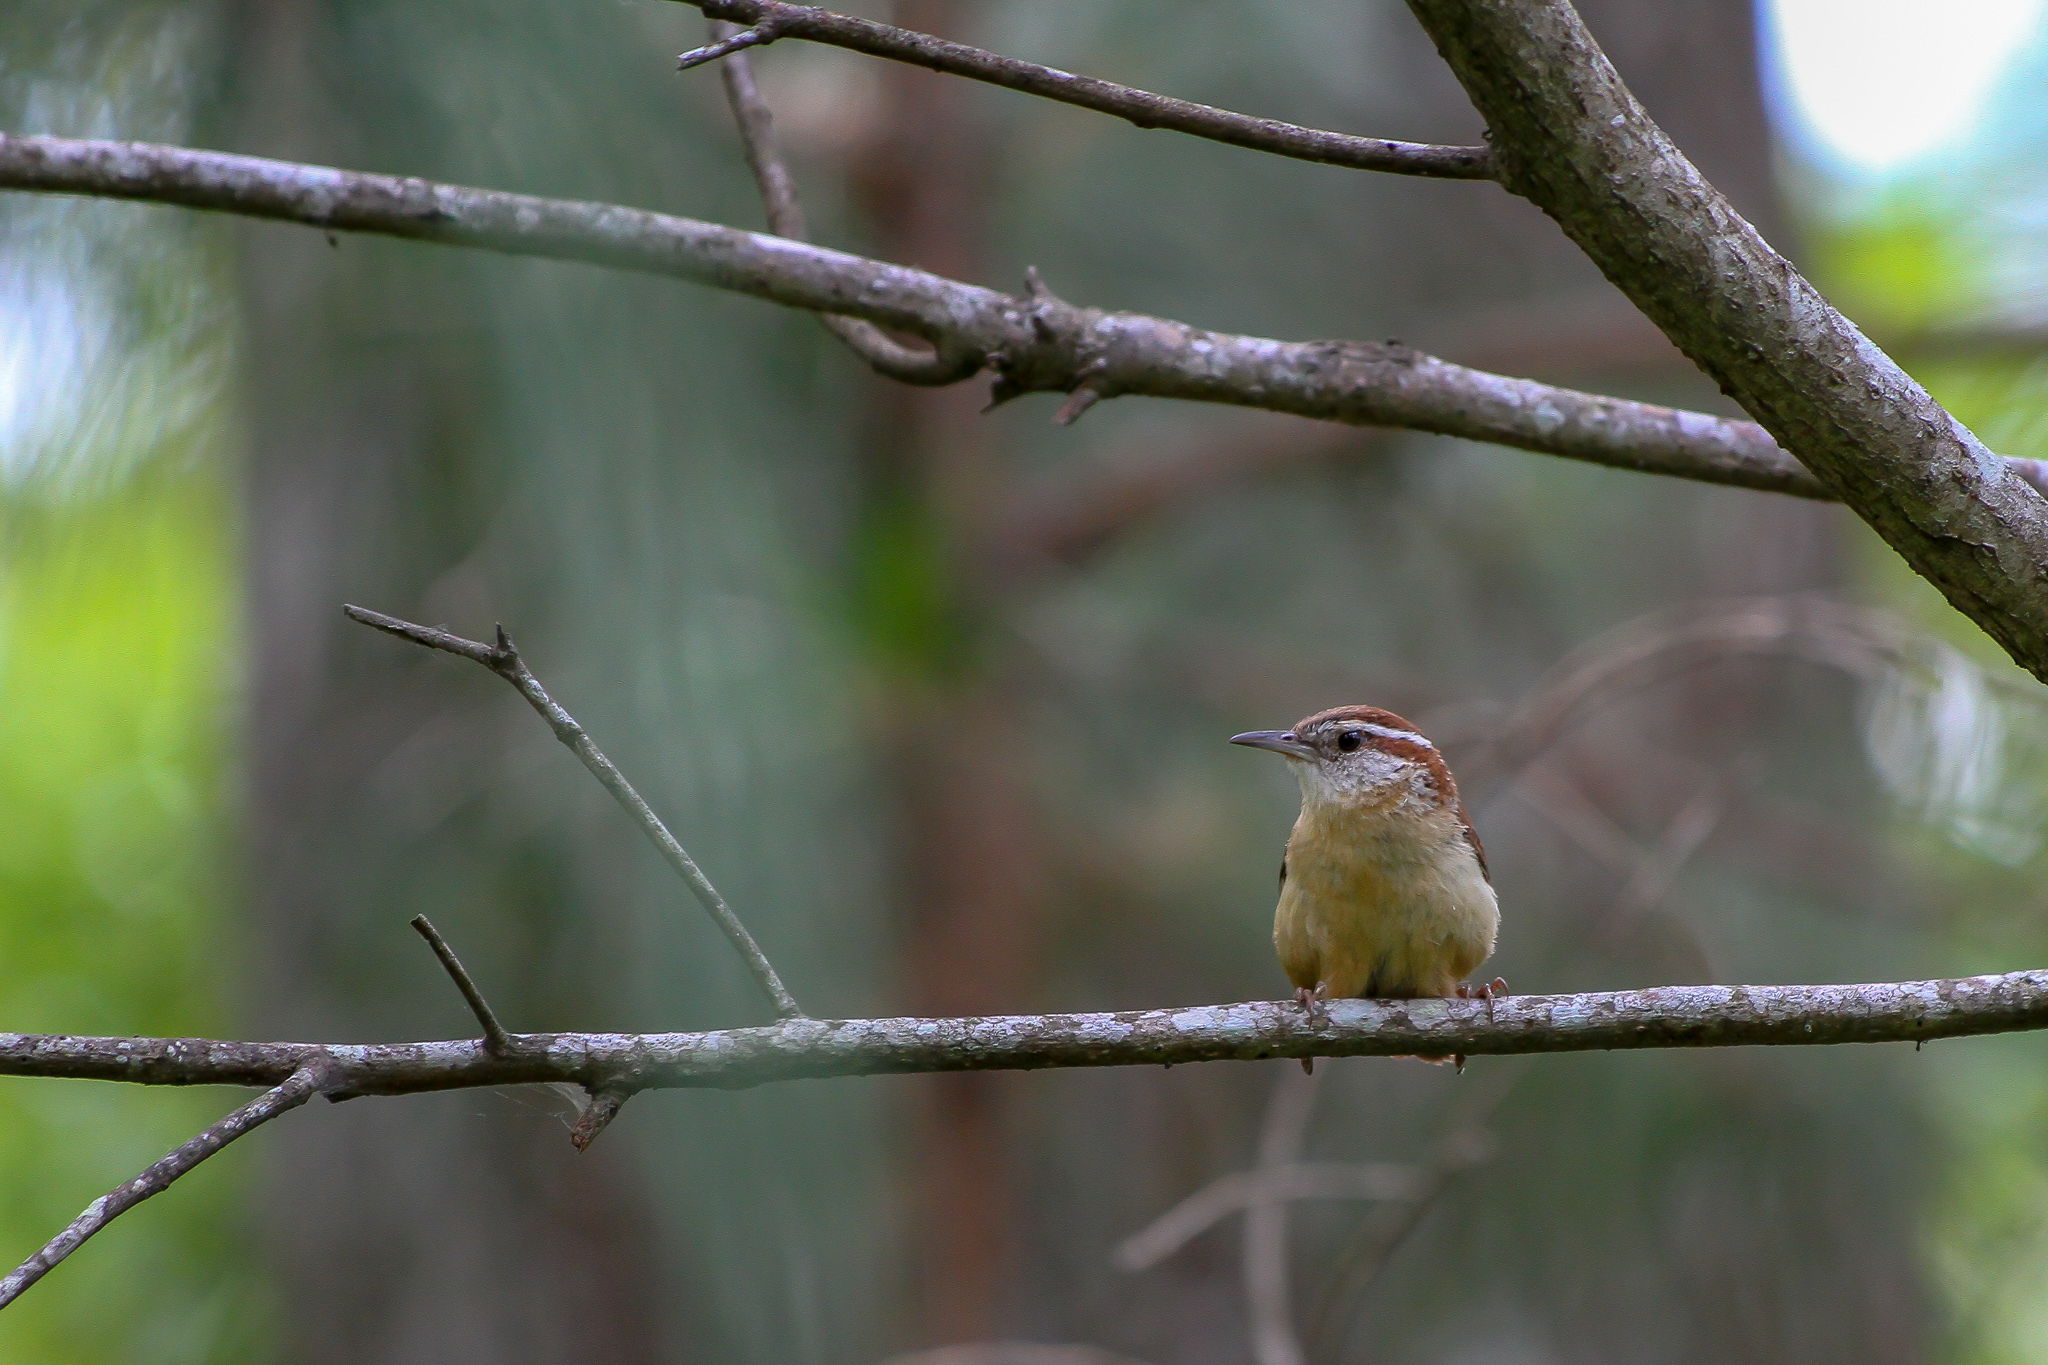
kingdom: Animalia
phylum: Chordata
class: Aves
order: Passeriformes
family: Troglodytidae
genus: Thryothorus
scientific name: Thryothorus ludovicianus
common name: Carolina wren
